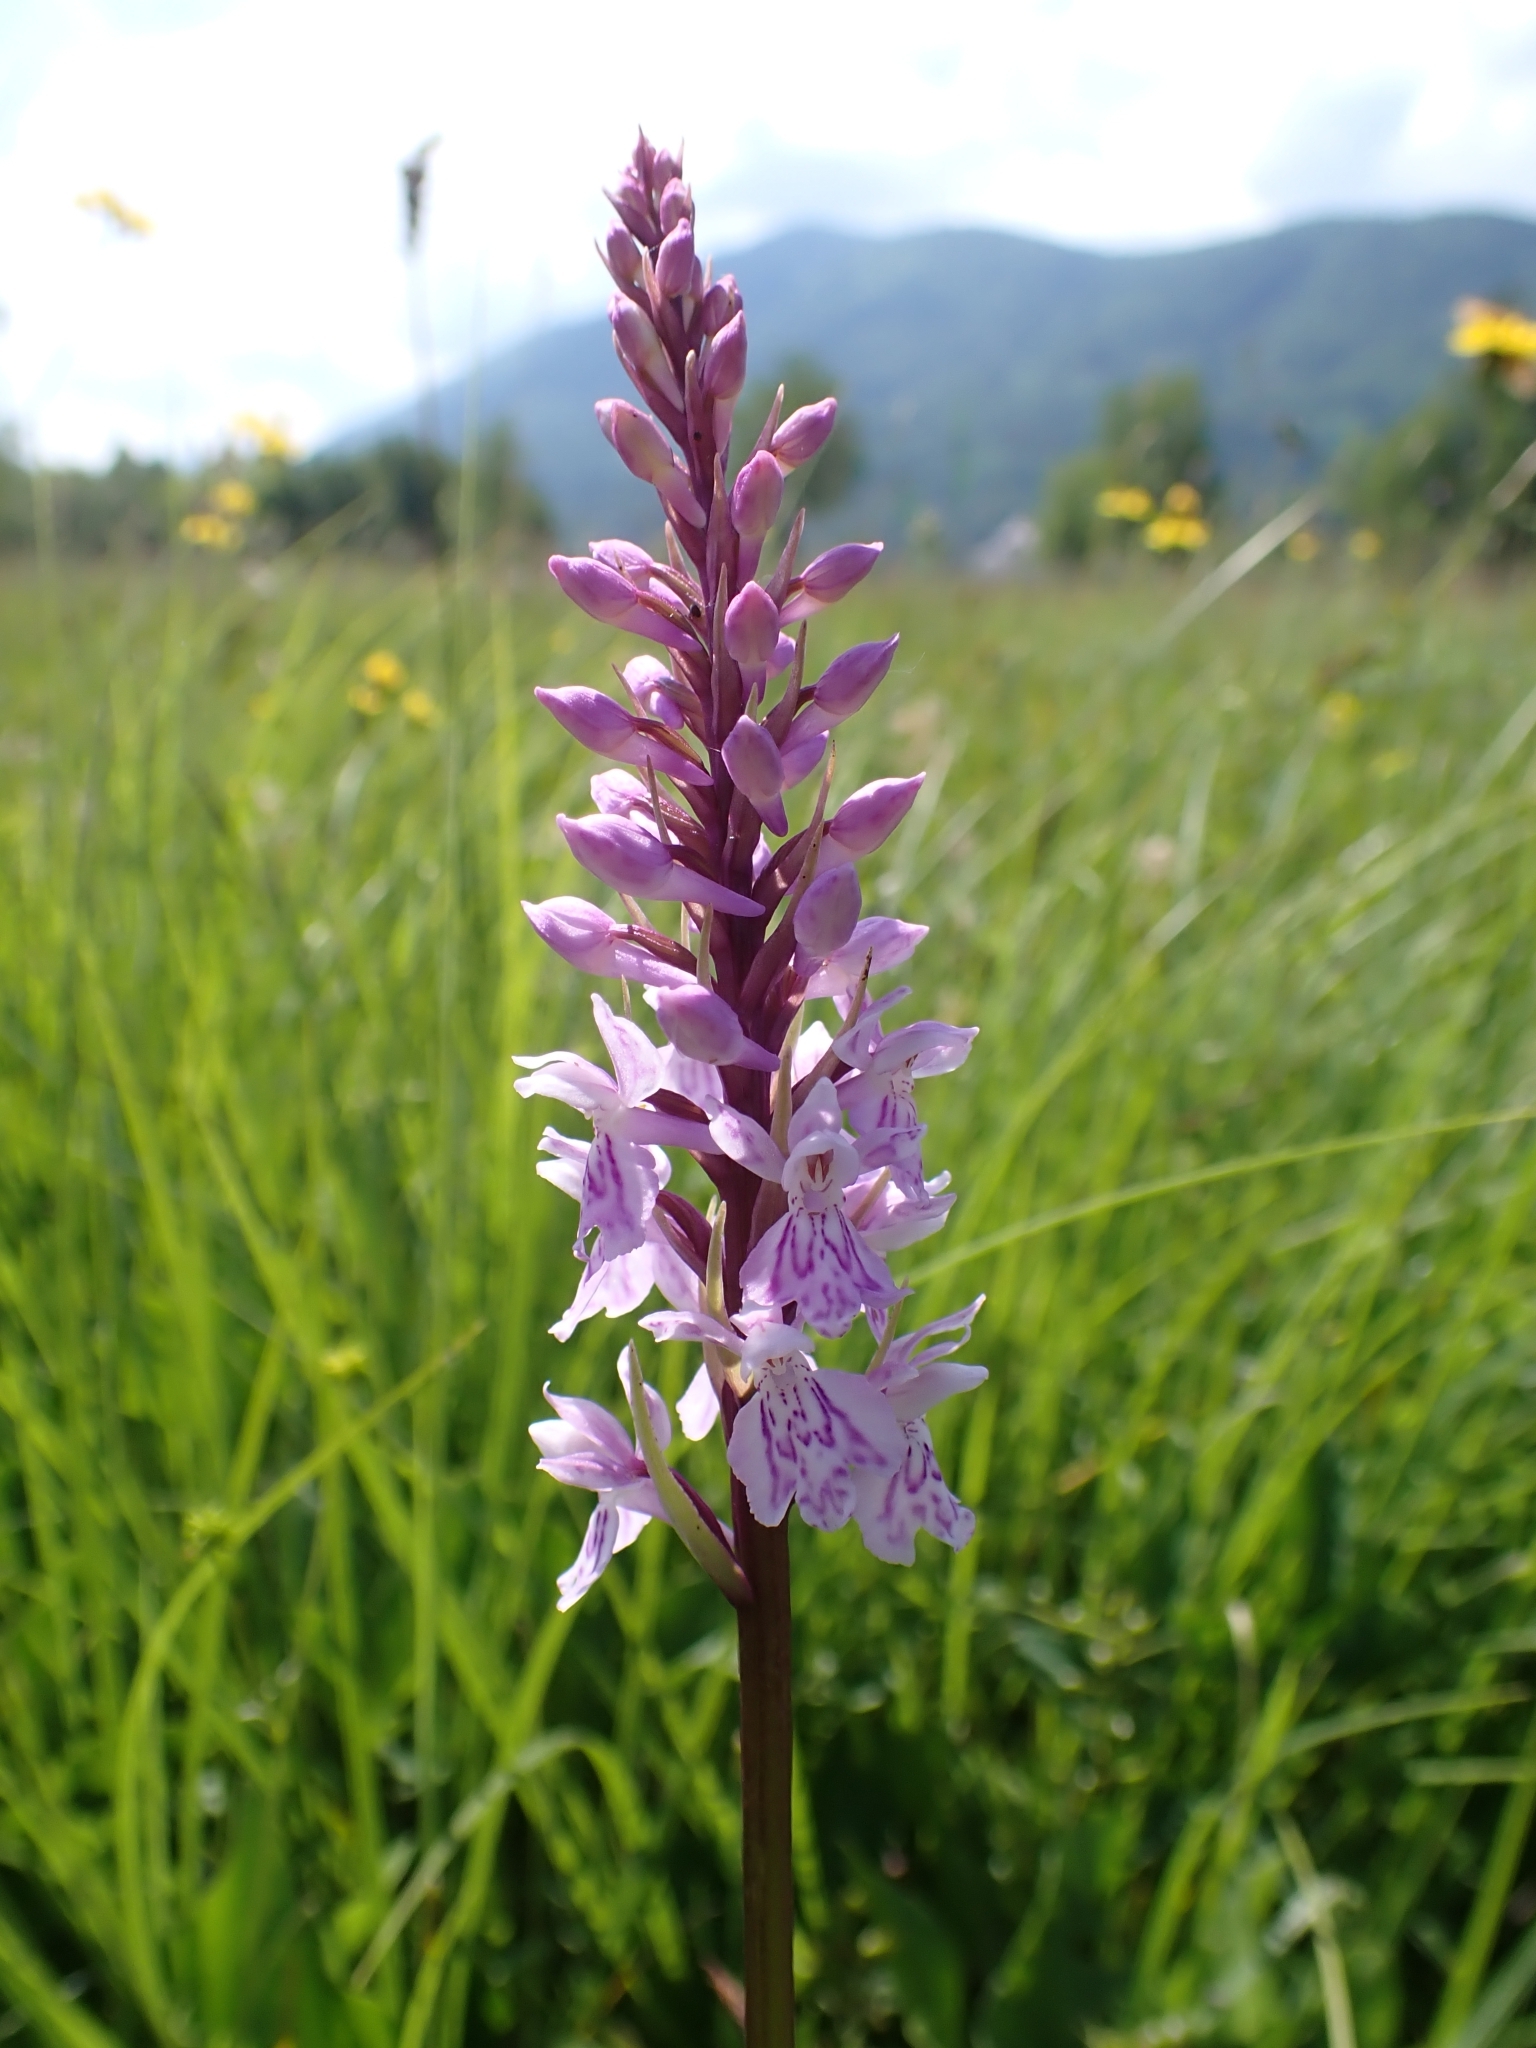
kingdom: Plantae
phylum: Tracheophyta
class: Liliopsida
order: Asparagales
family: Orchidaceae
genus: Dactylorhiza
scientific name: Dactylorhiza maculata
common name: Heath spotted-orchid
